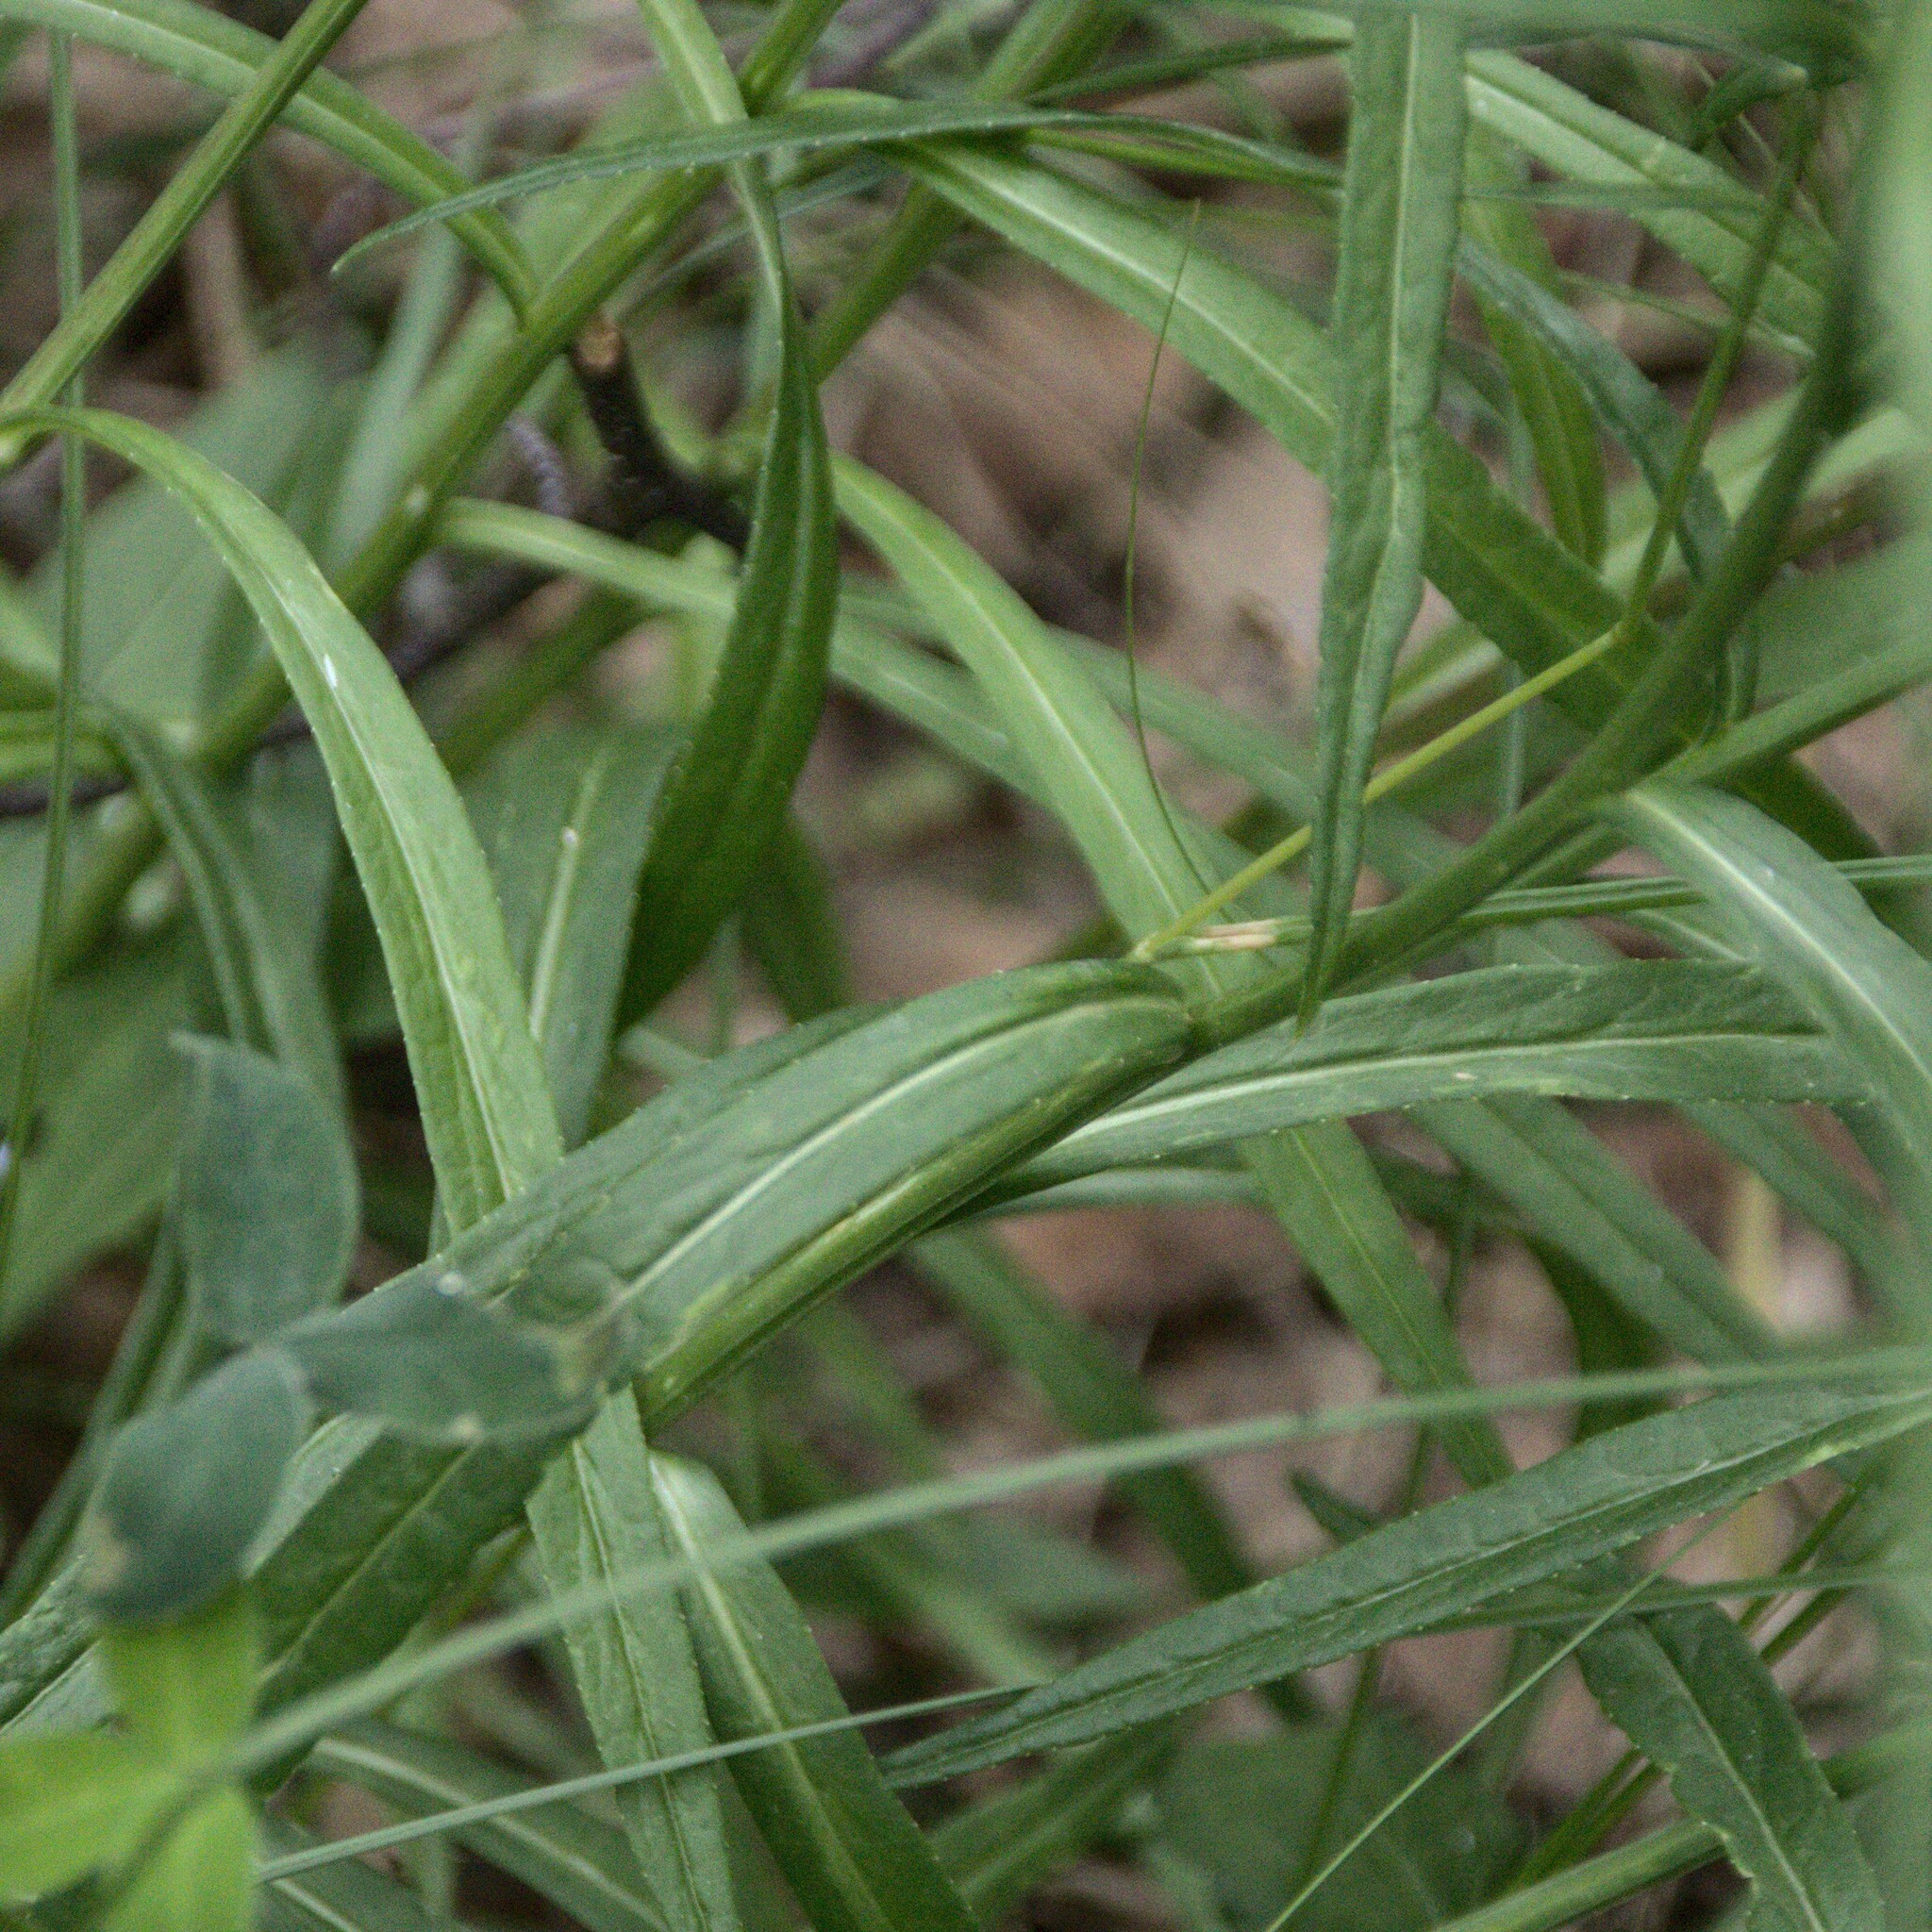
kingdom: Plantae
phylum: Tracheophyta
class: Magnoliopsida
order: Asterales
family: Campanulaceae
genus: Campanula
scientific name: Campanula persicifolia
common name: Peach-leaved bellflower
